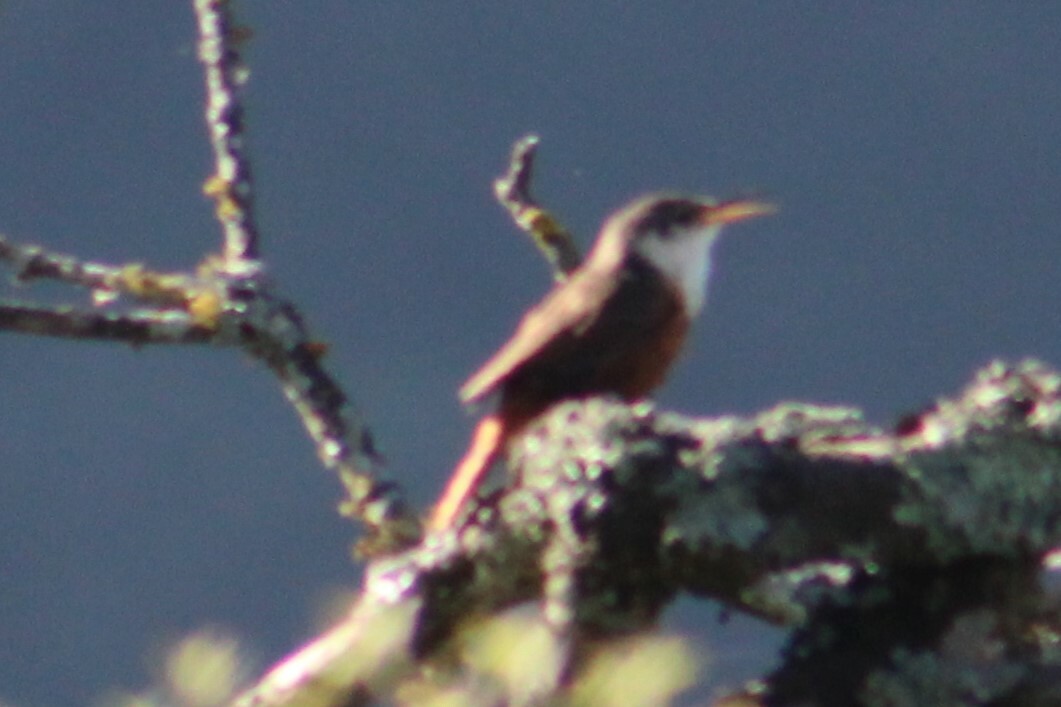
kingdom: Animalia
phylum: Chordata
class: Aves
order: Passeriformes
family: Troglodytidae
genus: Catherpes
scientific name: Catherpes mexicanus
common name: Canyon wren
